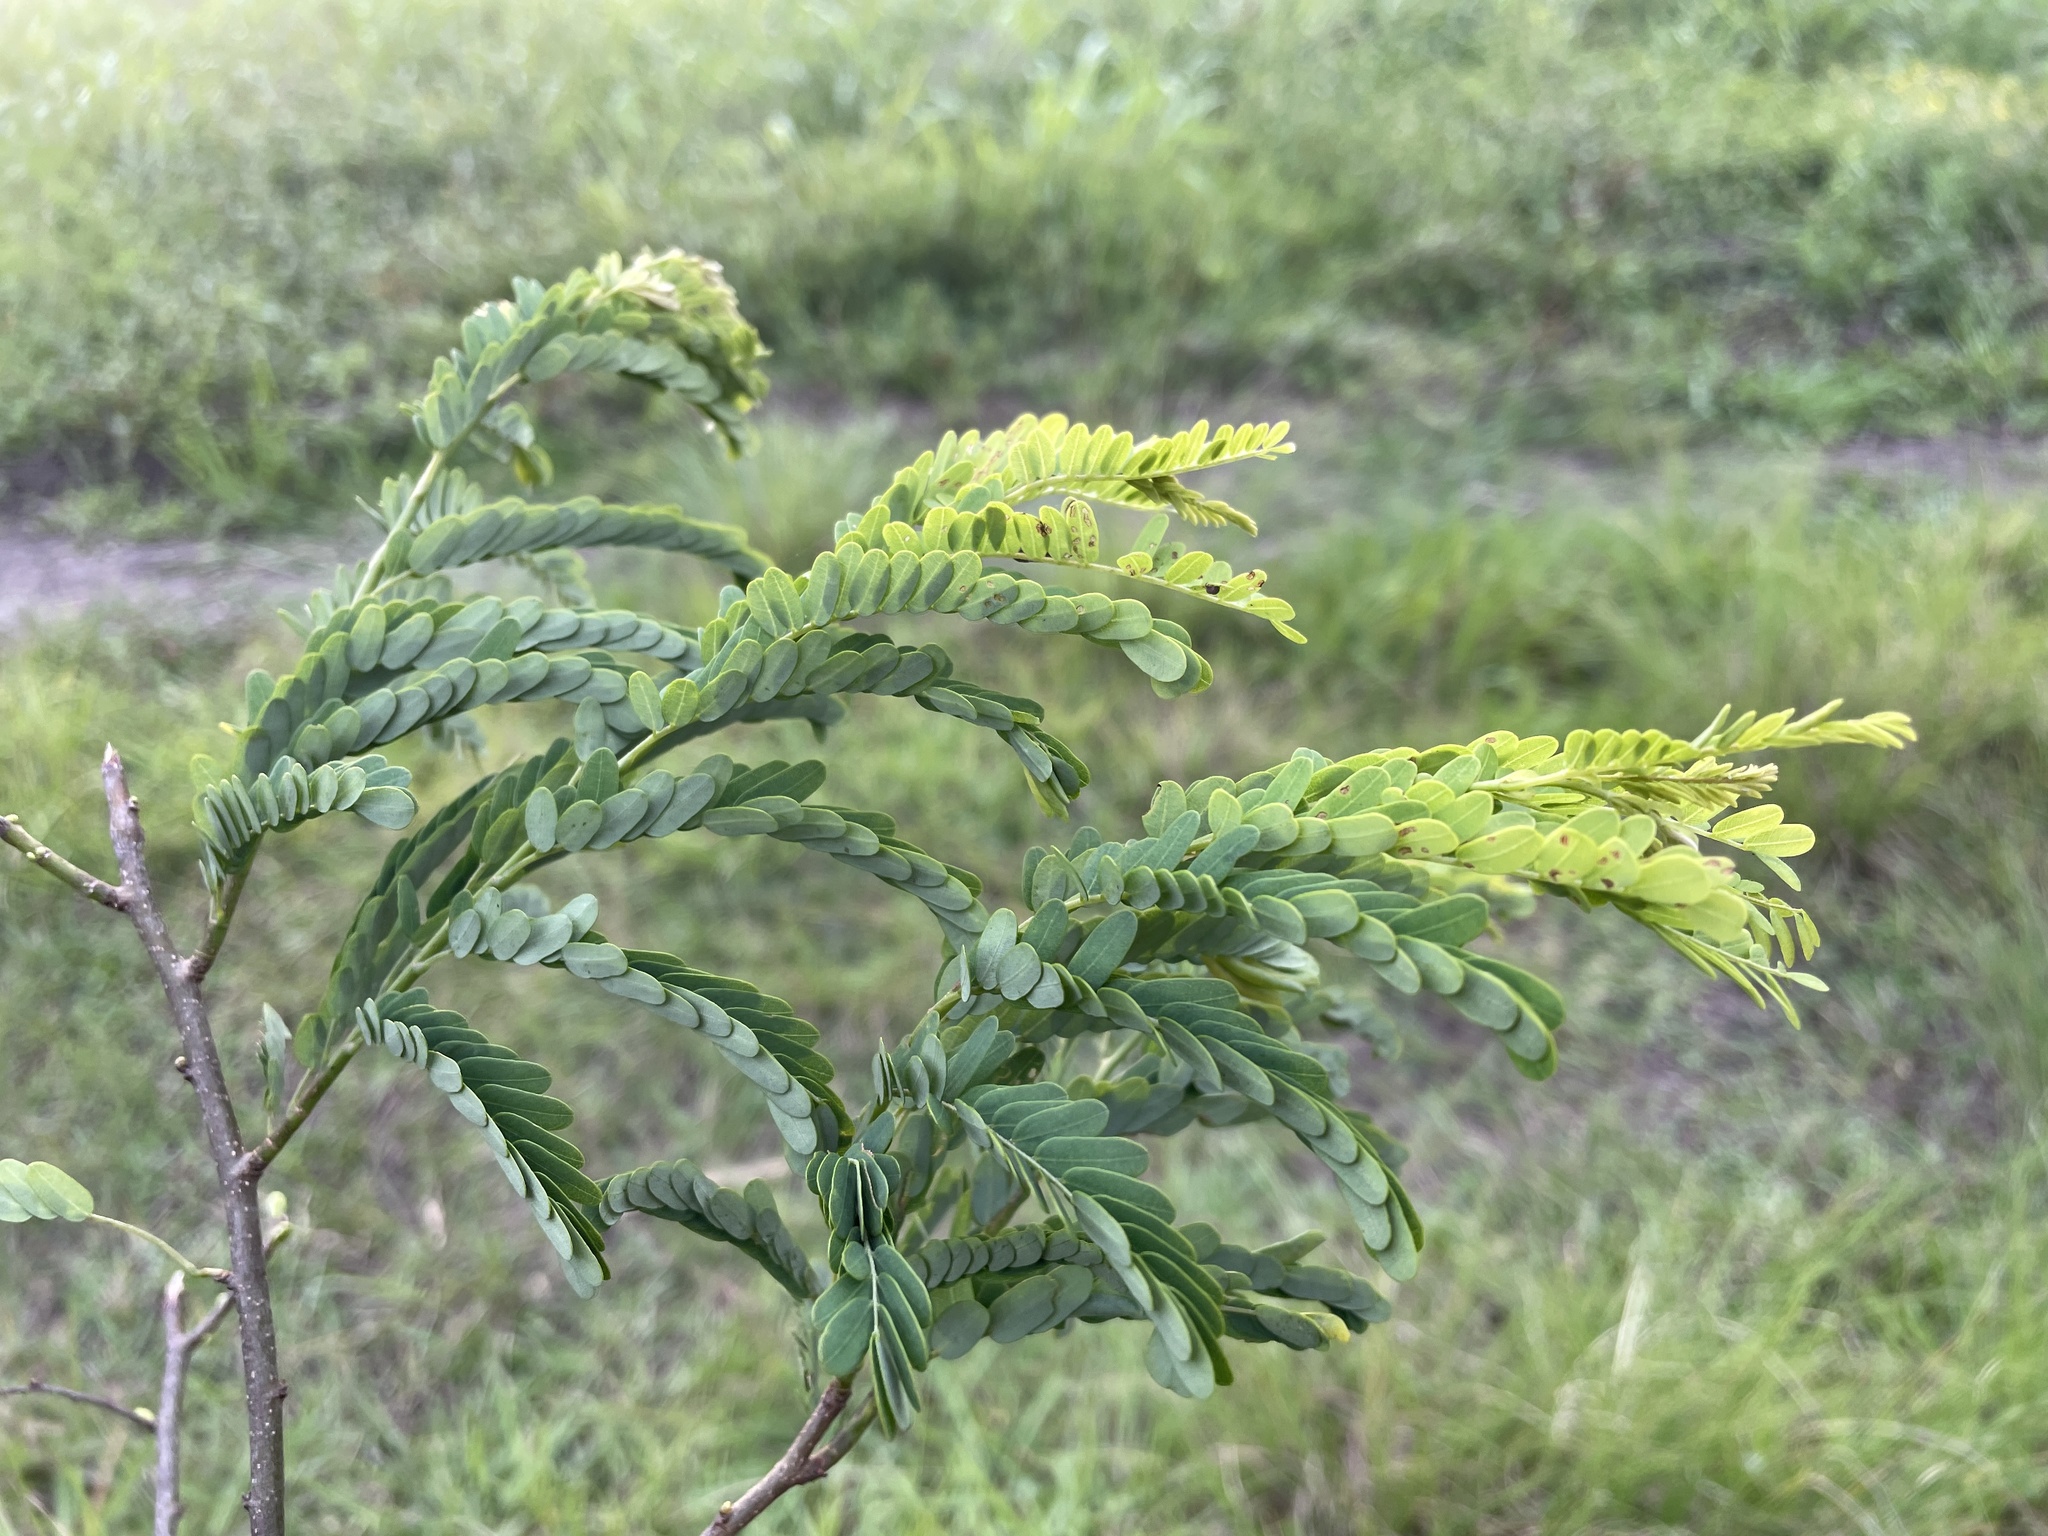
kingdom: Plantae
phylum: Tracheophyta
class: Magnoliopsida
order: Fabales
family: Fabaceae
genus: Dalbergia
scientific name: Dalbergia armata
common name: Hluhluwe climber
